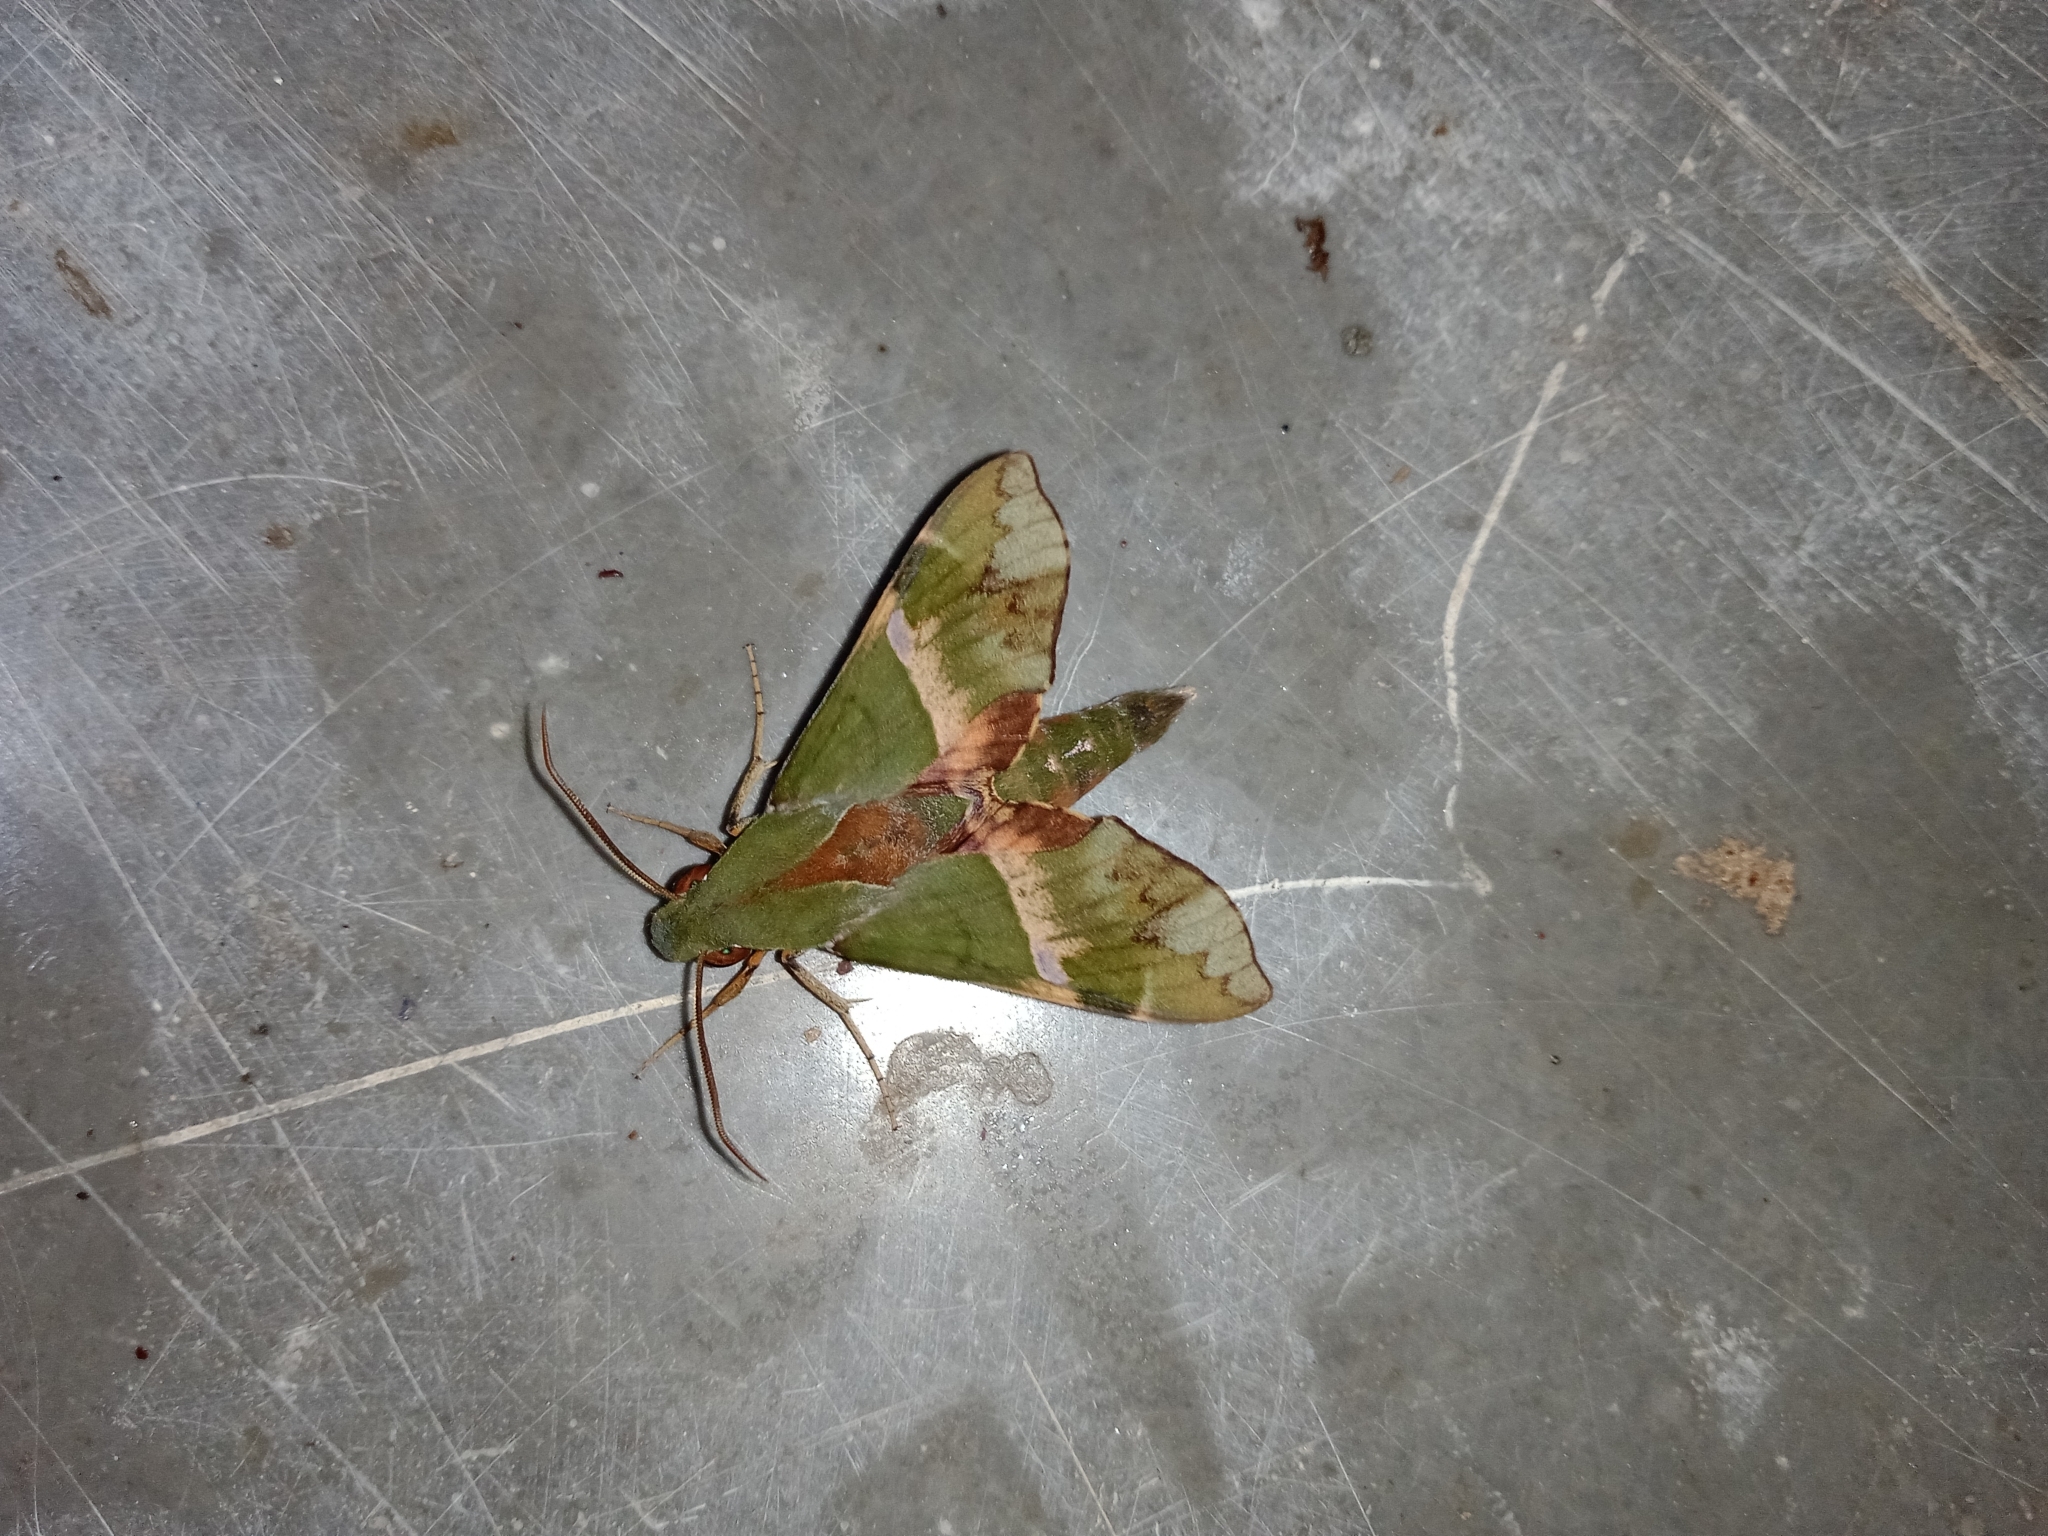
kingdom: Animalia
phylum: Arthropoda
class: Insecta
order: Lepidoptera
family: Sphingidae
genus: Angonyx
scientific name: Angonyx krishna
